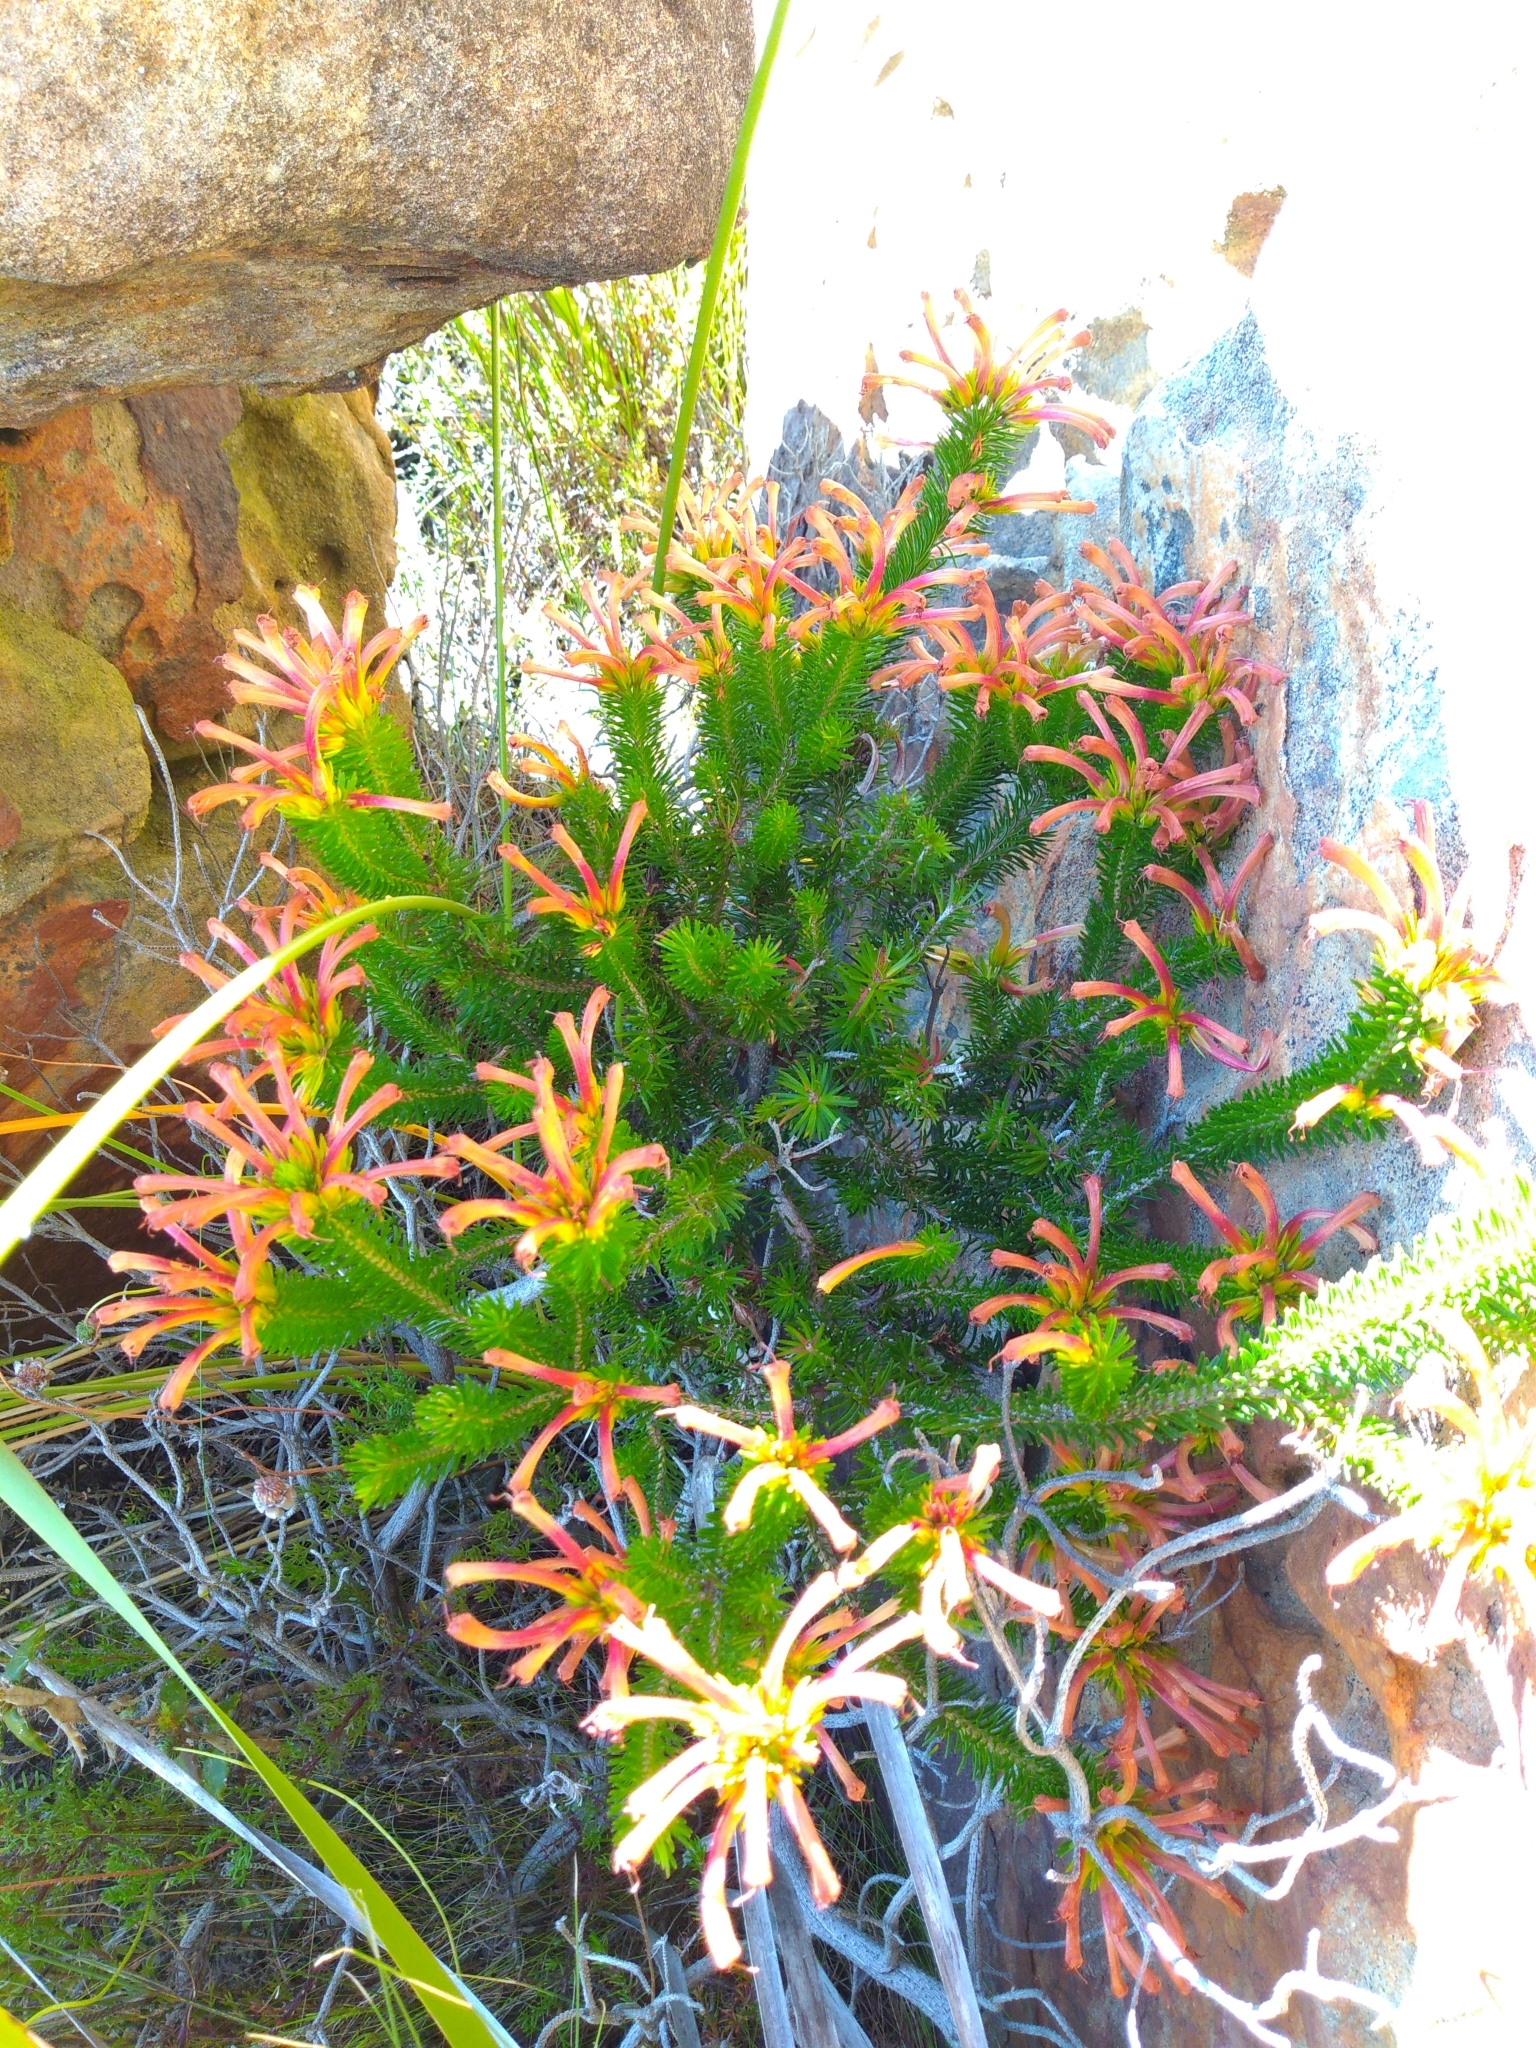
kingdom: Plantae
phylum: Tracheophyta
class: Magnoliopsida
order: Ericales
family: Ericaceae
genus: Erica
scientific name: Erica quadrisulcata
